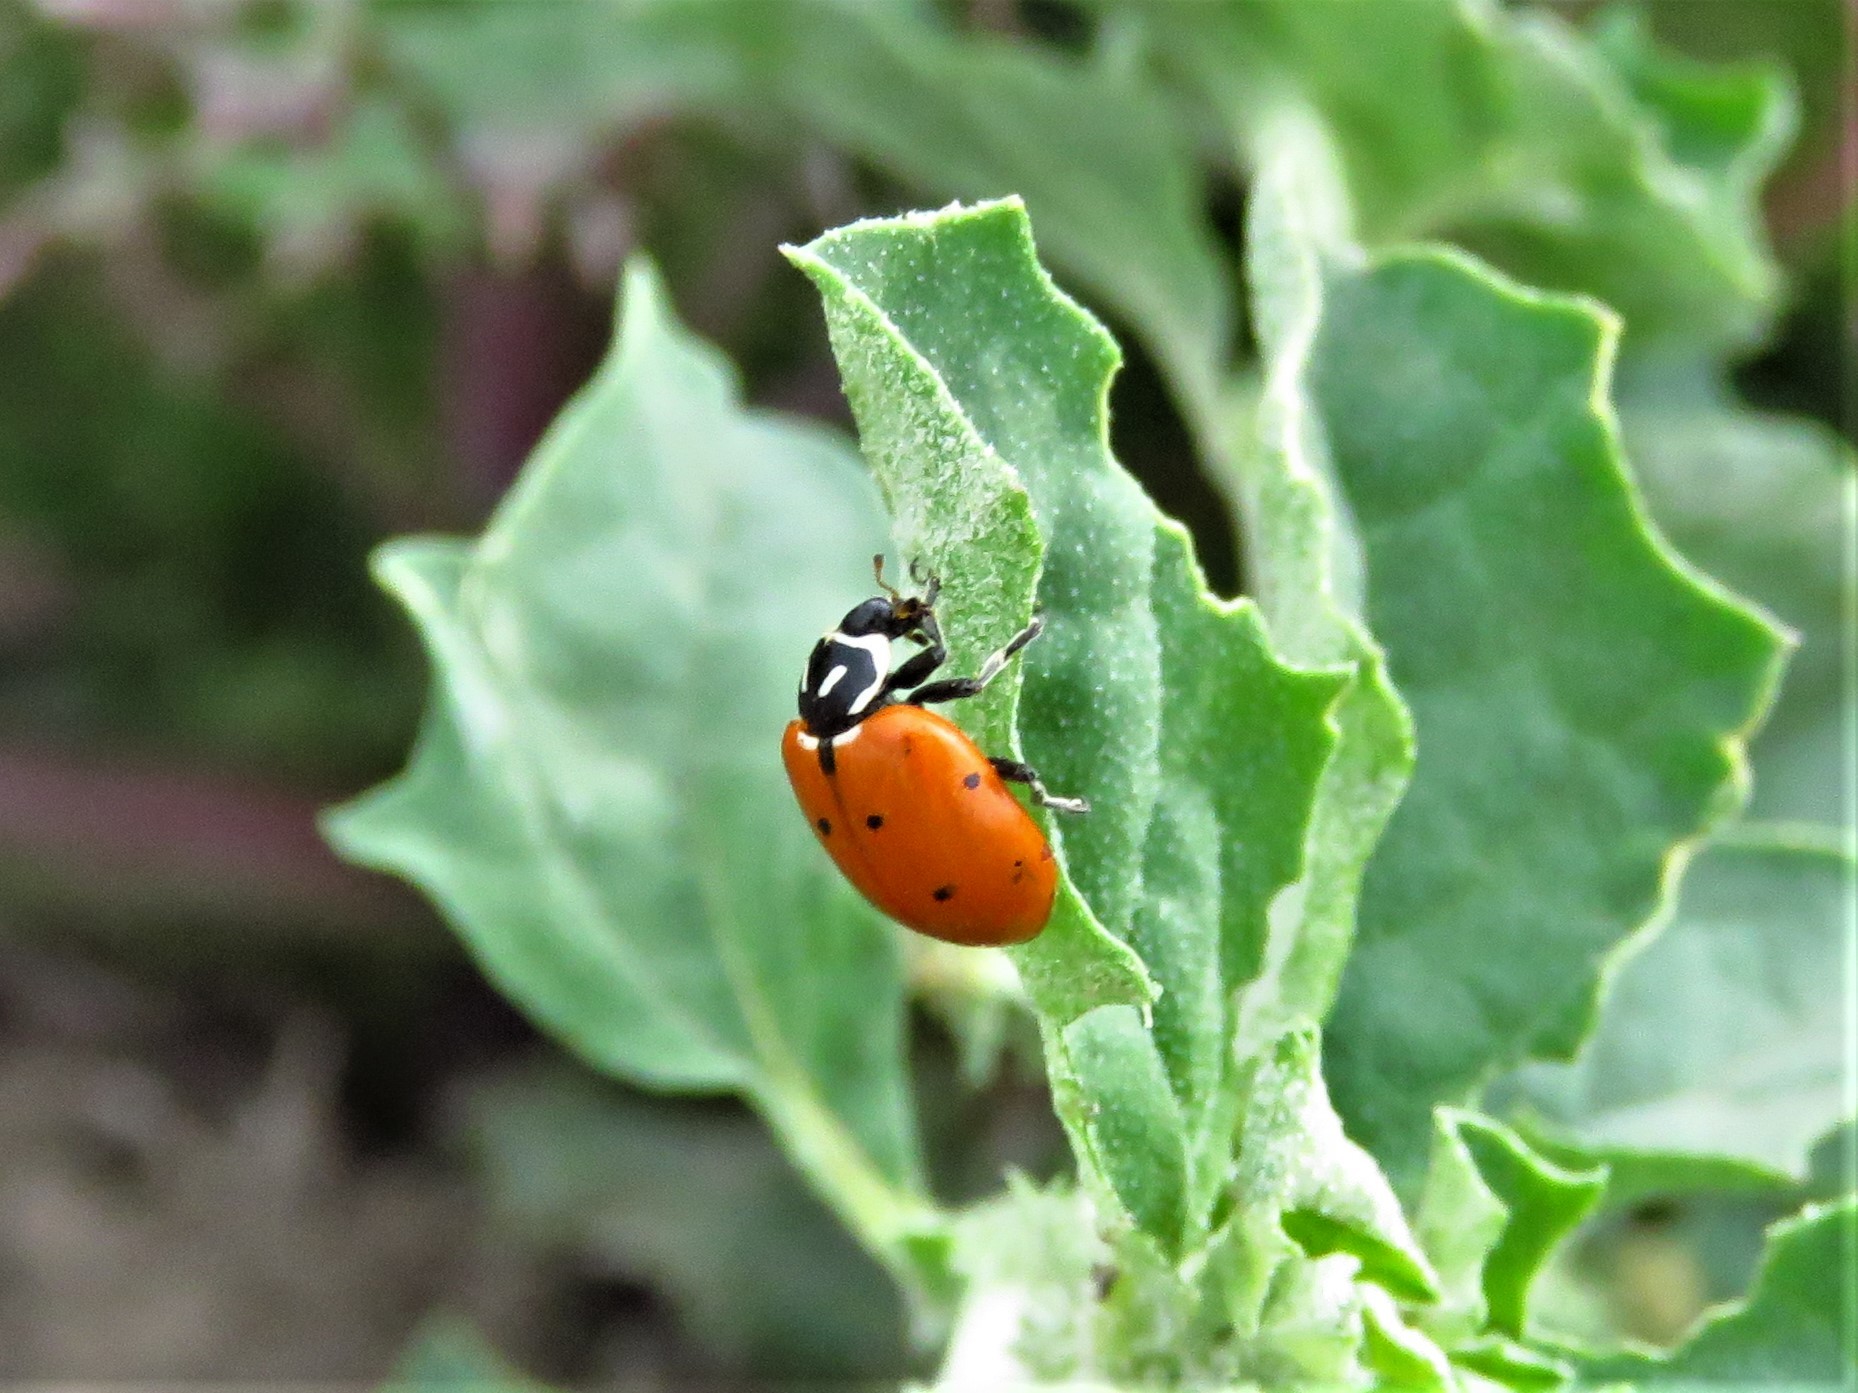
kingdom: Animalia
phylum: Arthropoda
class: Insecta
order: Coleoptera
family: Coccinellidae
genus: Hippodamia
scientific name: Hippodamia convergens
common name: Convergent lady beetle
